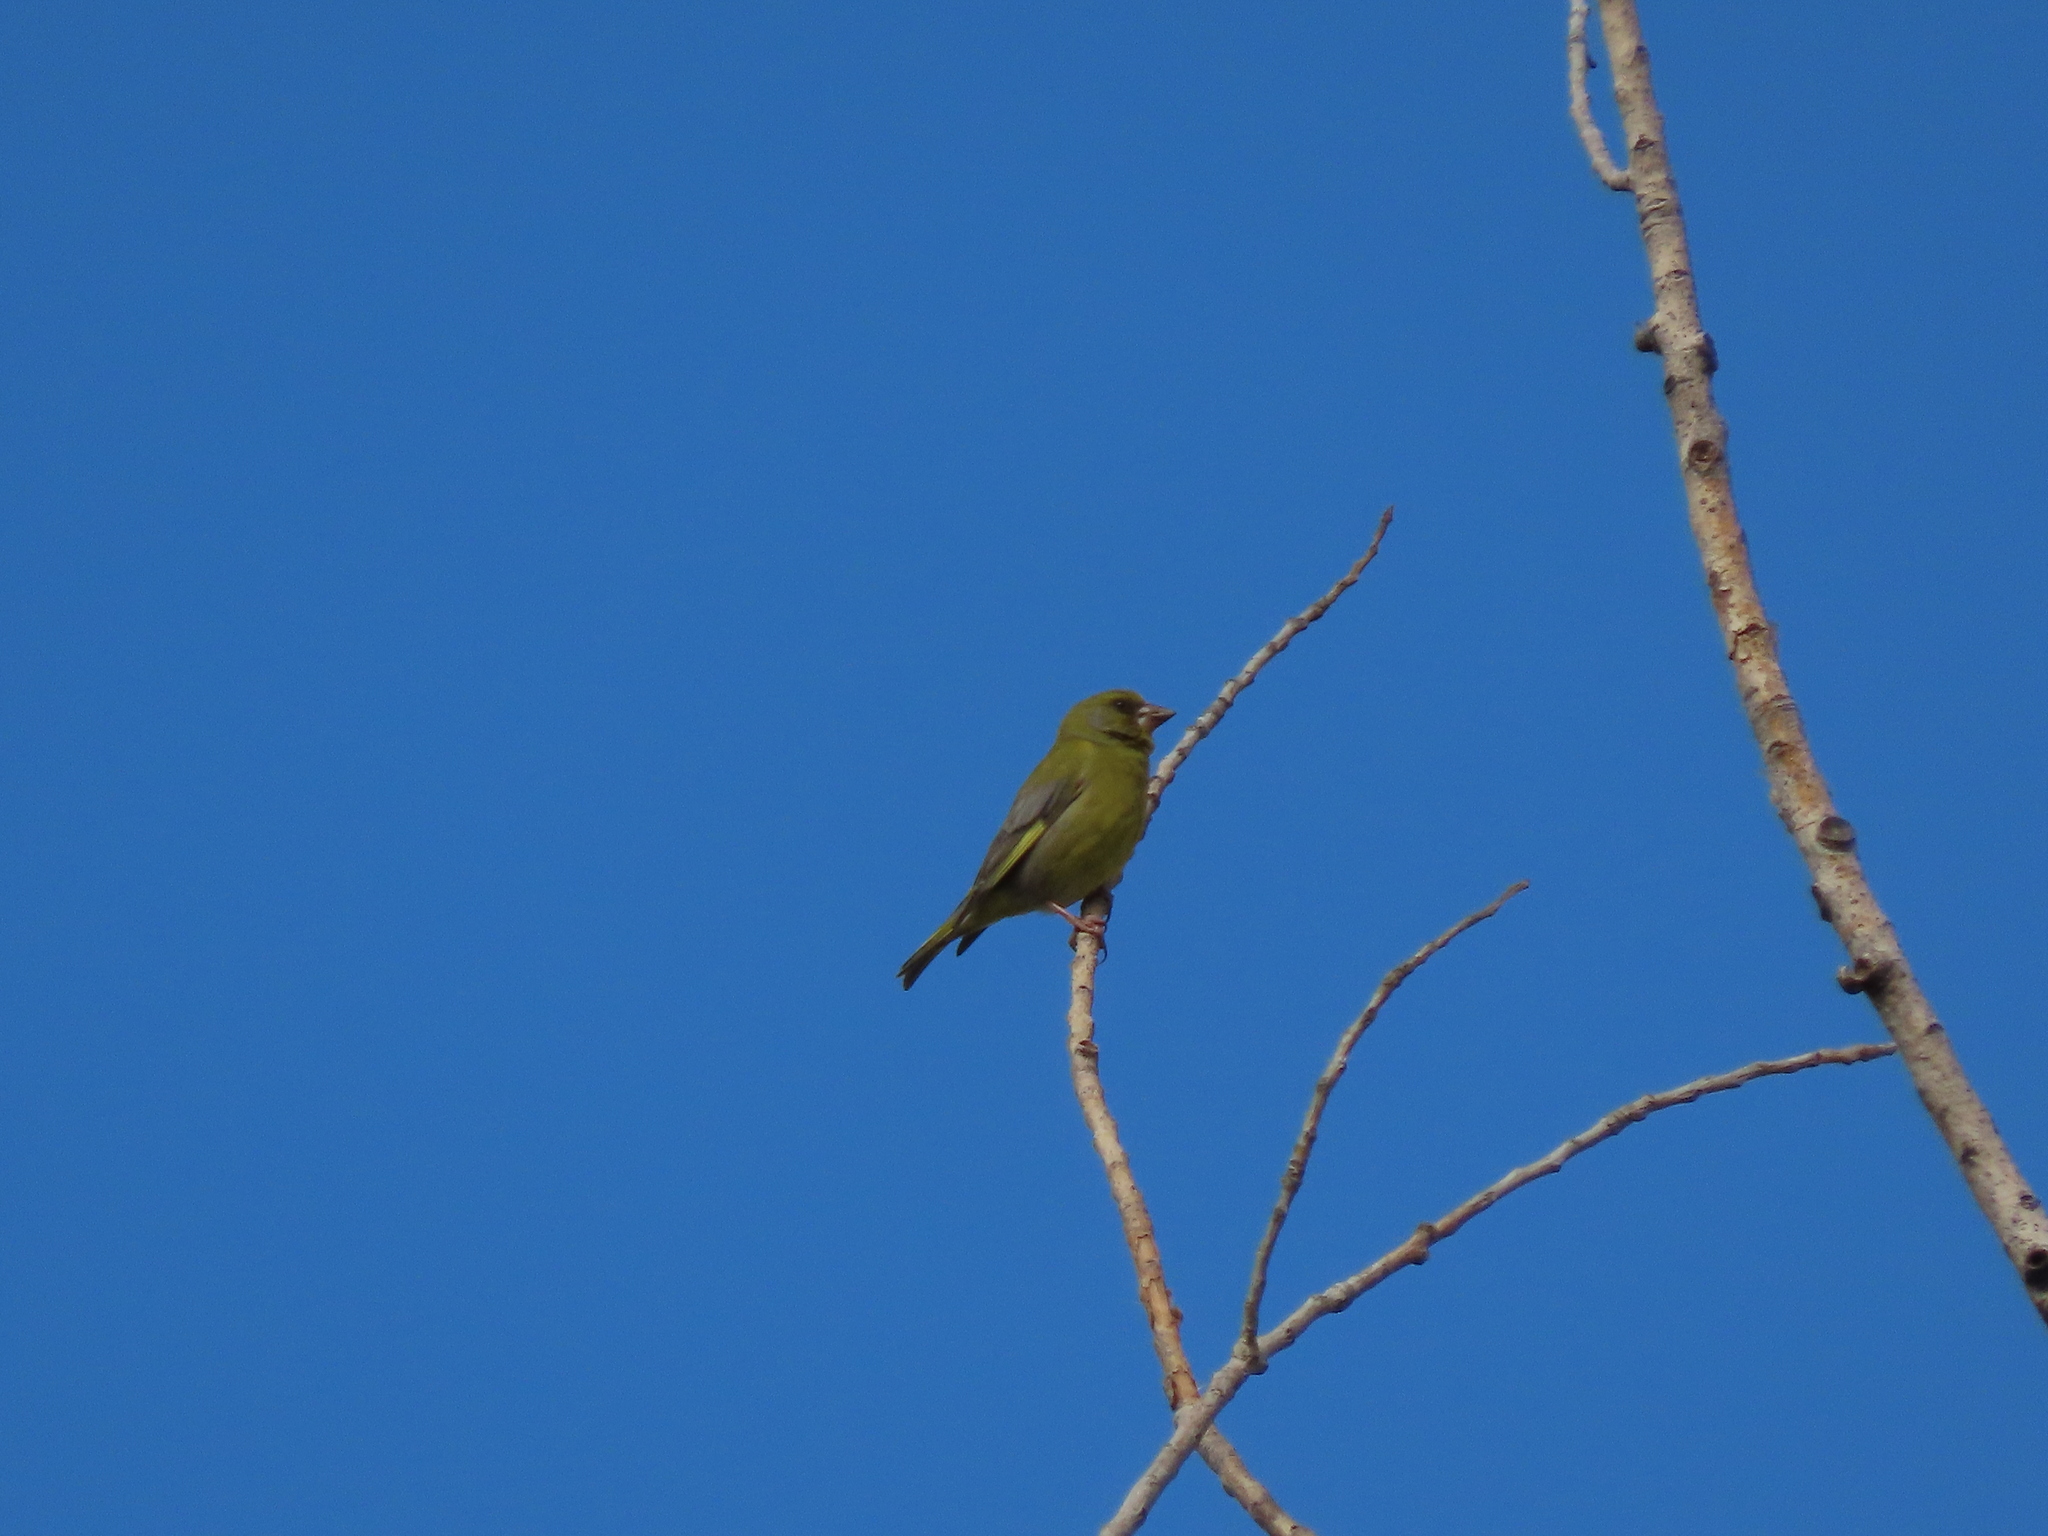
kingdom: Plantae
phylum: Tracheophyta
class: Liliopsida
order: Poales
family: Poaceae
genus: Chloris
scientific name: Chloris chloris
